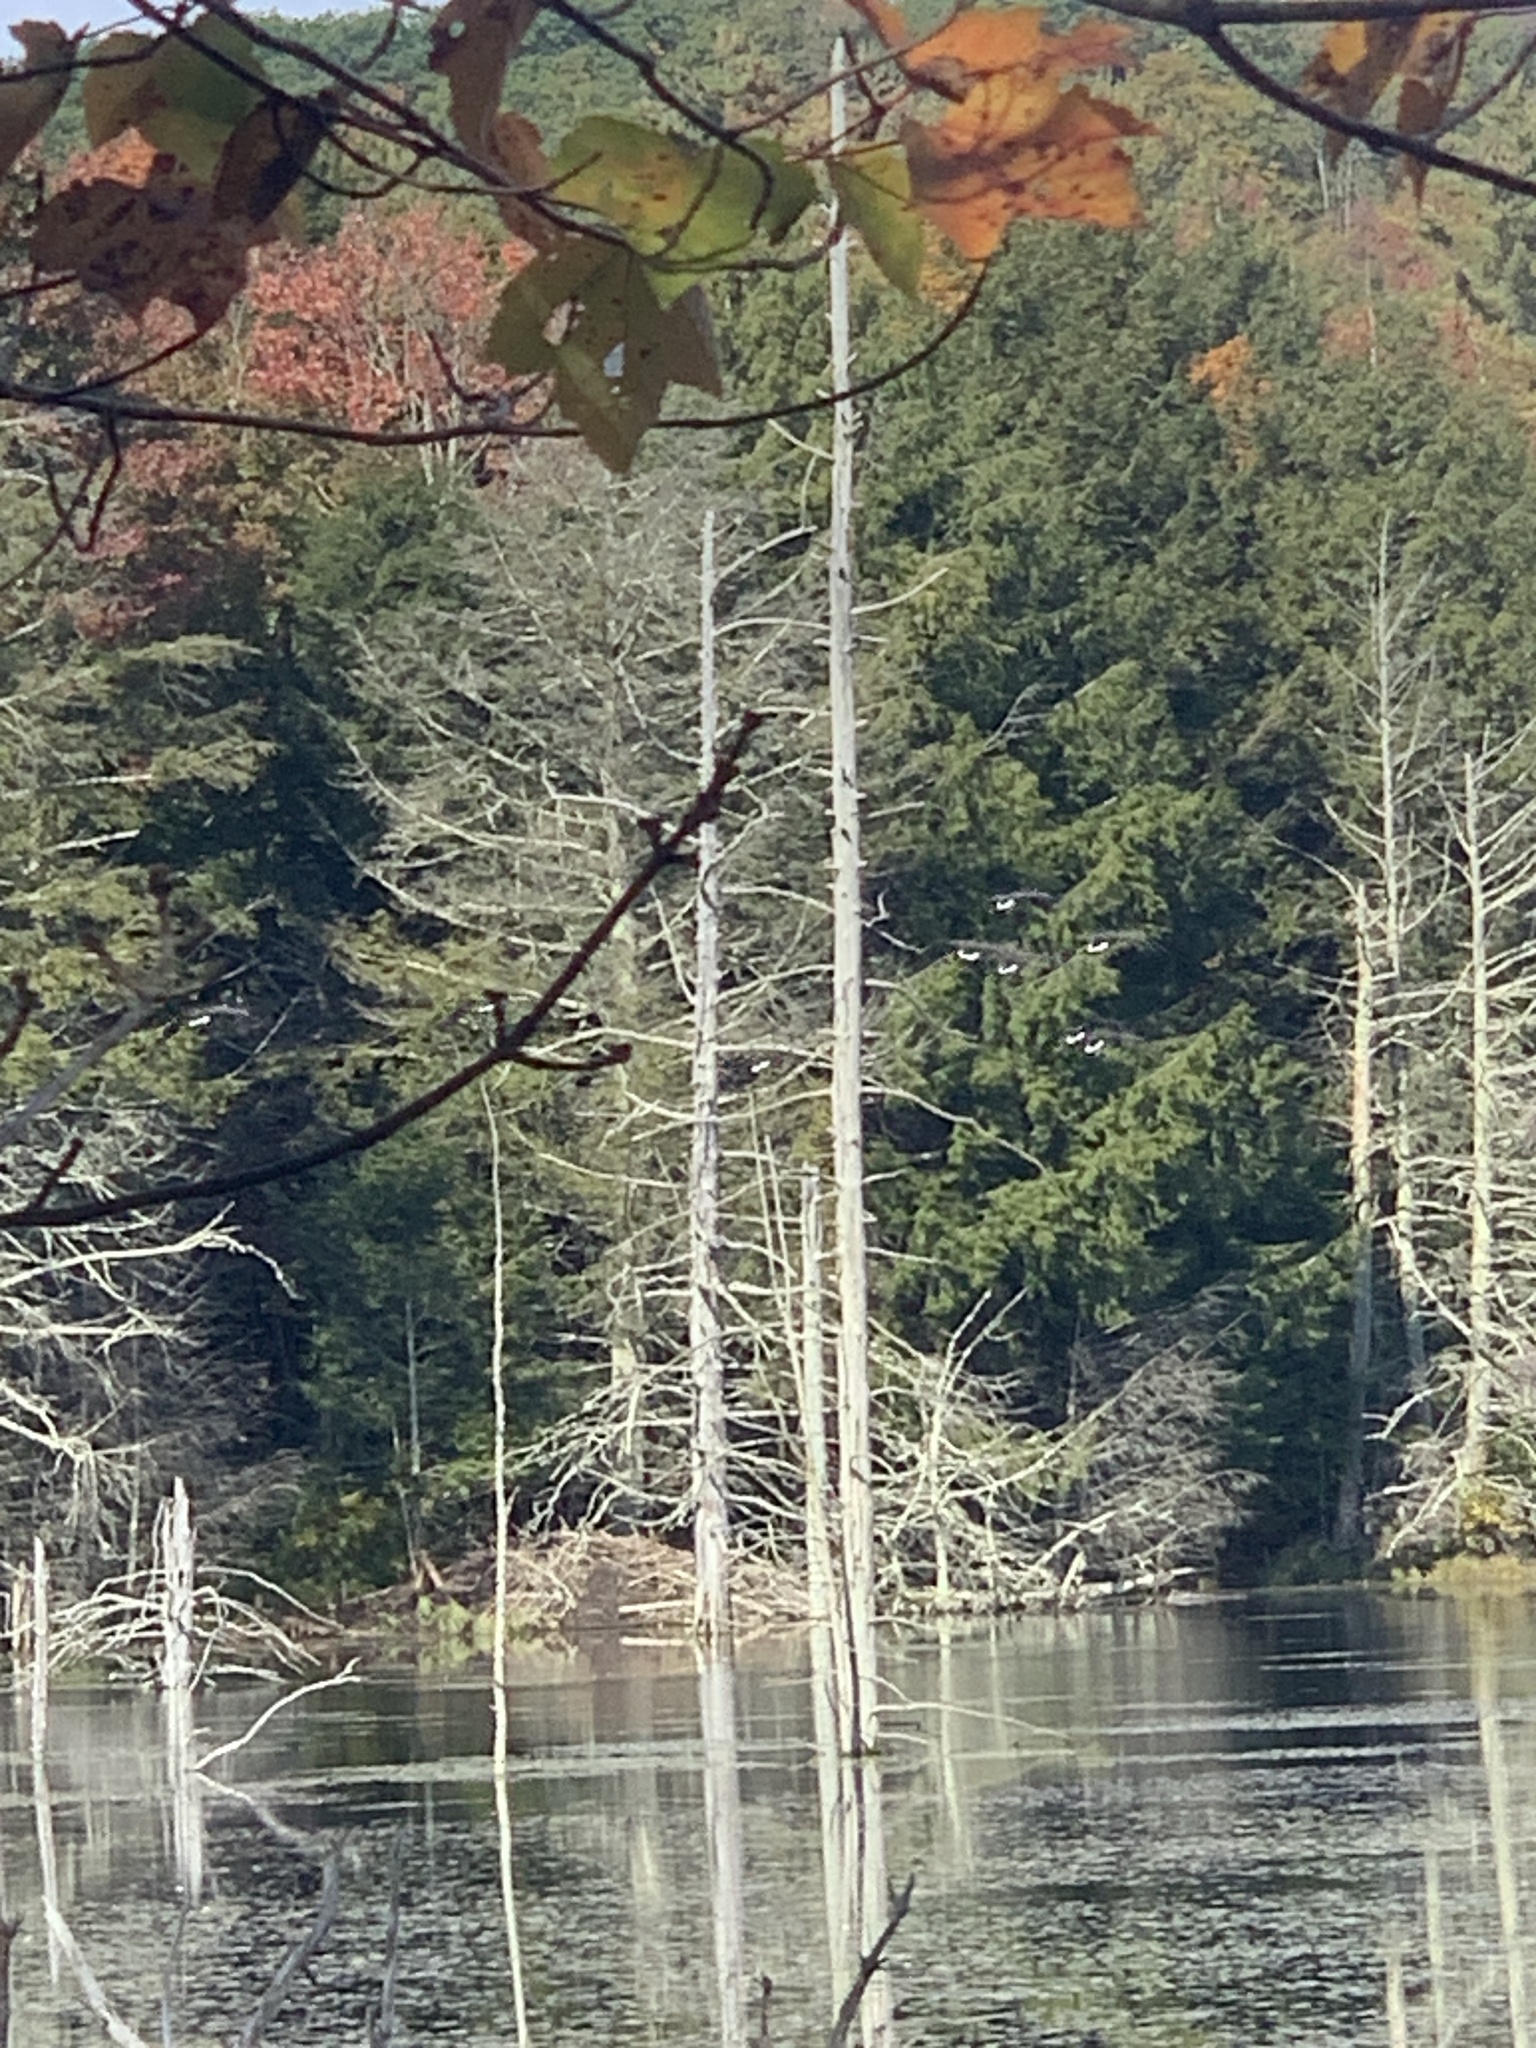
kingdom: Animalia
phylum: Chordata
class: Aves
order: Anseriformes
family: Anatidae
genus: Branta
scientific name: Branta canadensis
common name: Canada goose
